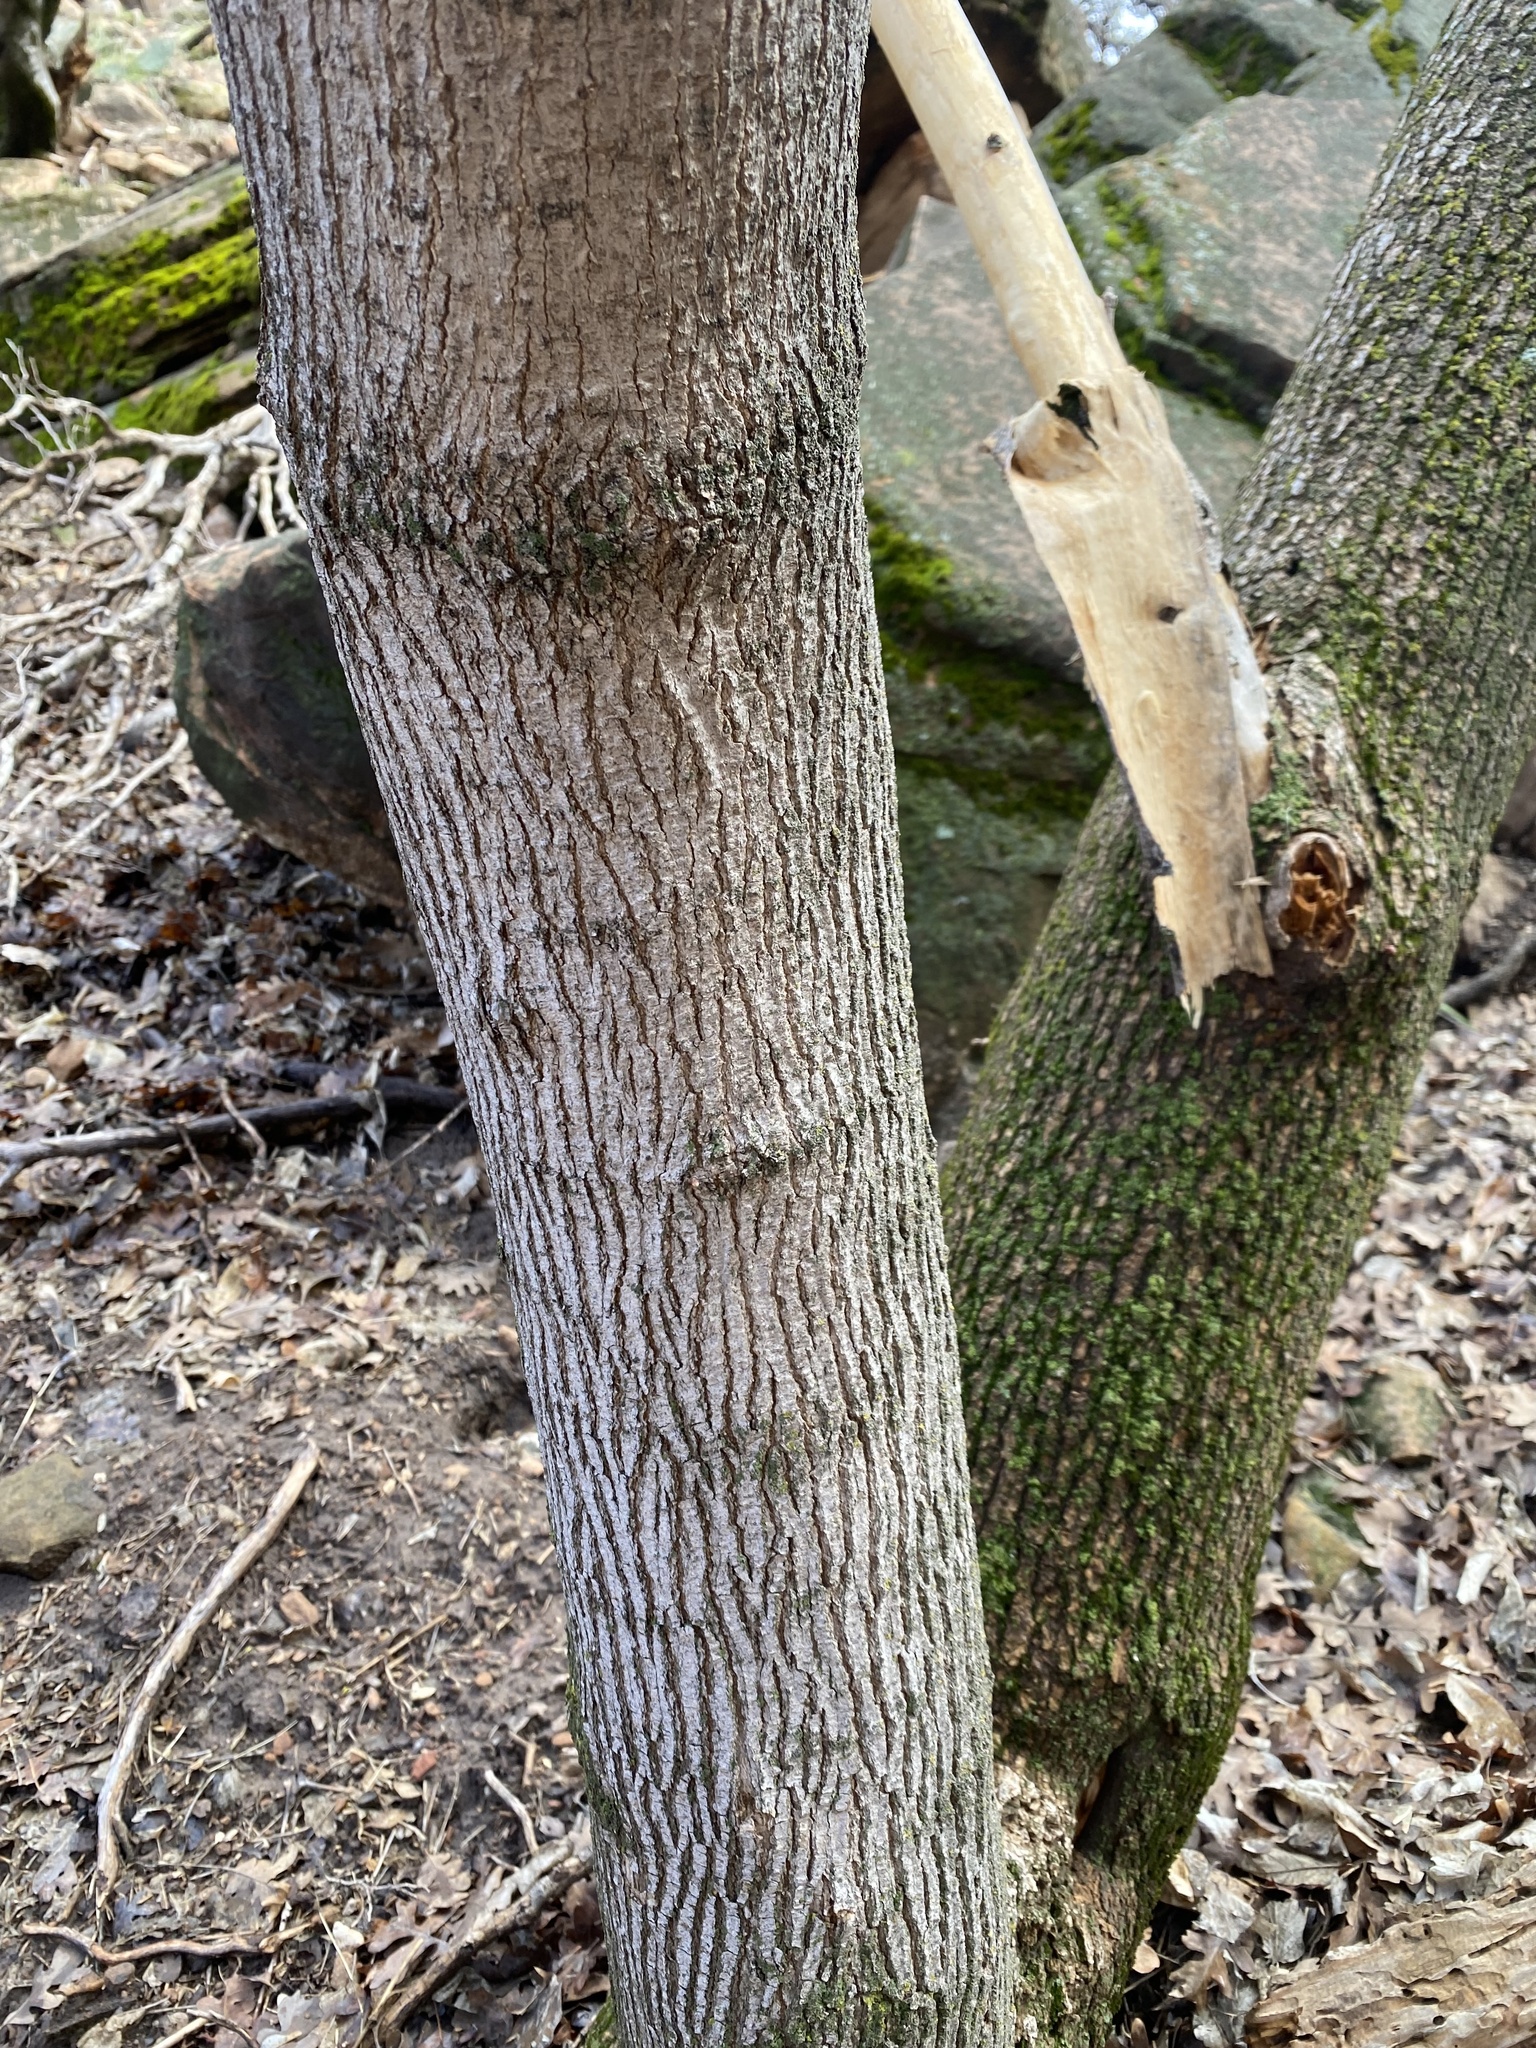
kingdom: Plantae
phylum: Tracheophyta
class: Magnoliopsida
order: Sapindales
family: Sapindaceae
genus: Acer
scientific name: Acer negundo
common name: Ashleaf maple
